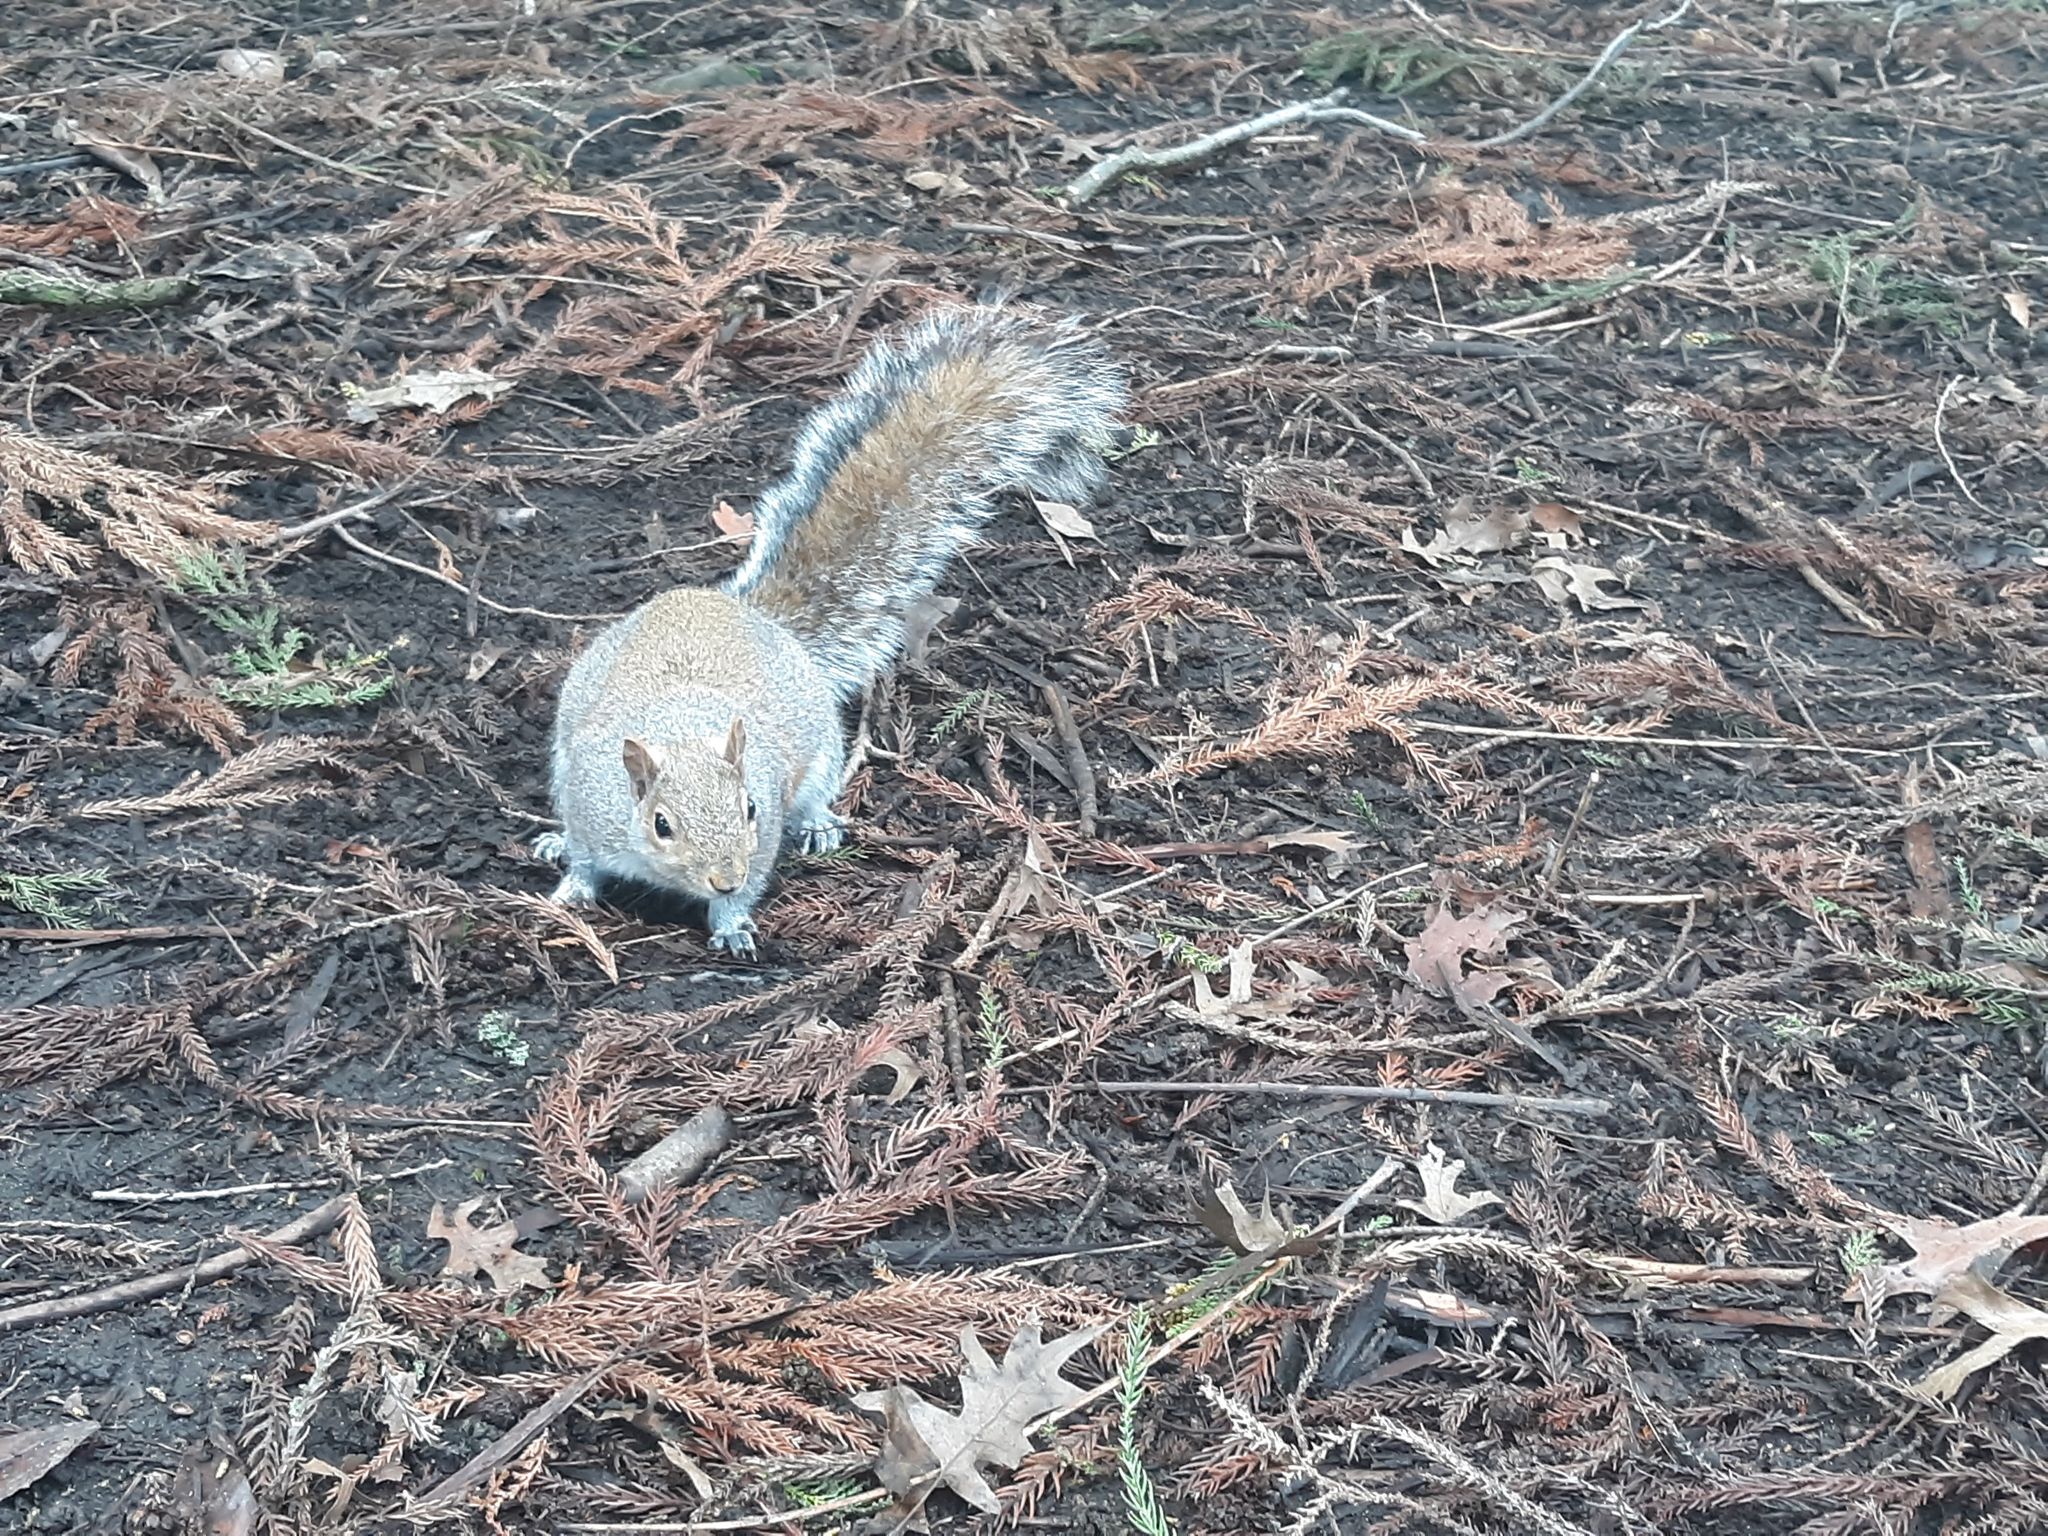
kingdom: Animalia
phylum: Chordata
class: Mammalia
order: Rodentia
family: Sciuridae
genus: Sciurus
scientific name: Sciurus carolinensis
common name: Eastern gray squirrel
